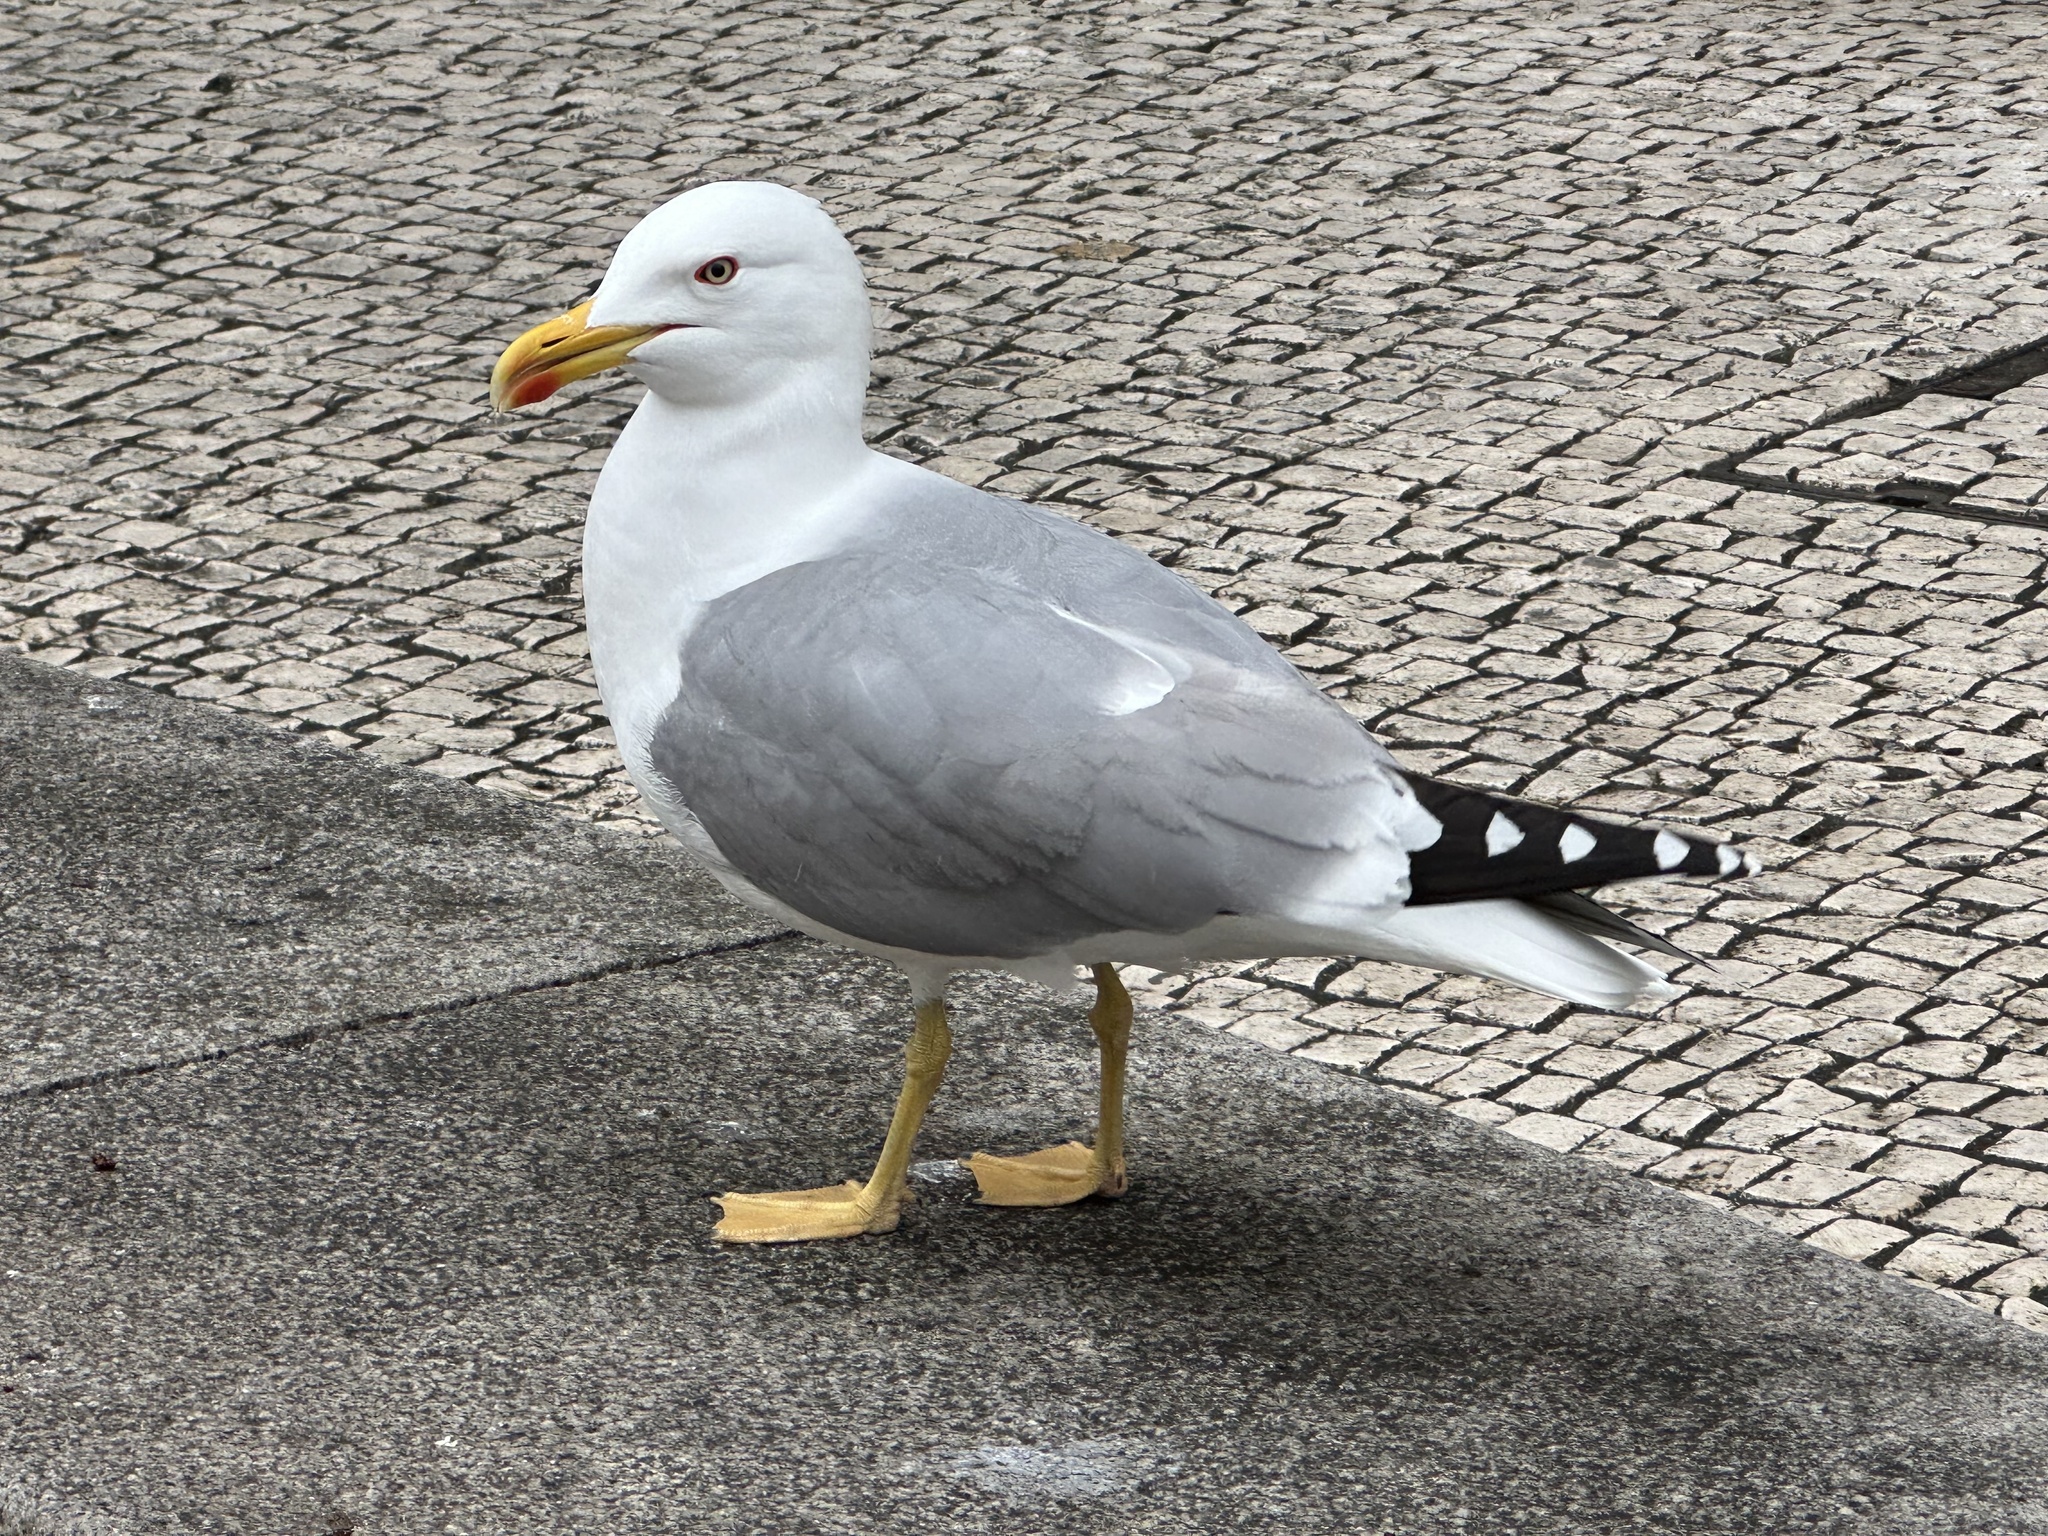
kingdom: Animalia
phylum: Chordata
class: Aves
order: Charadriiformes
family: Laridae
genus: Larus
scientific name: Larus michahellis
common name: Yellow-legged gull
